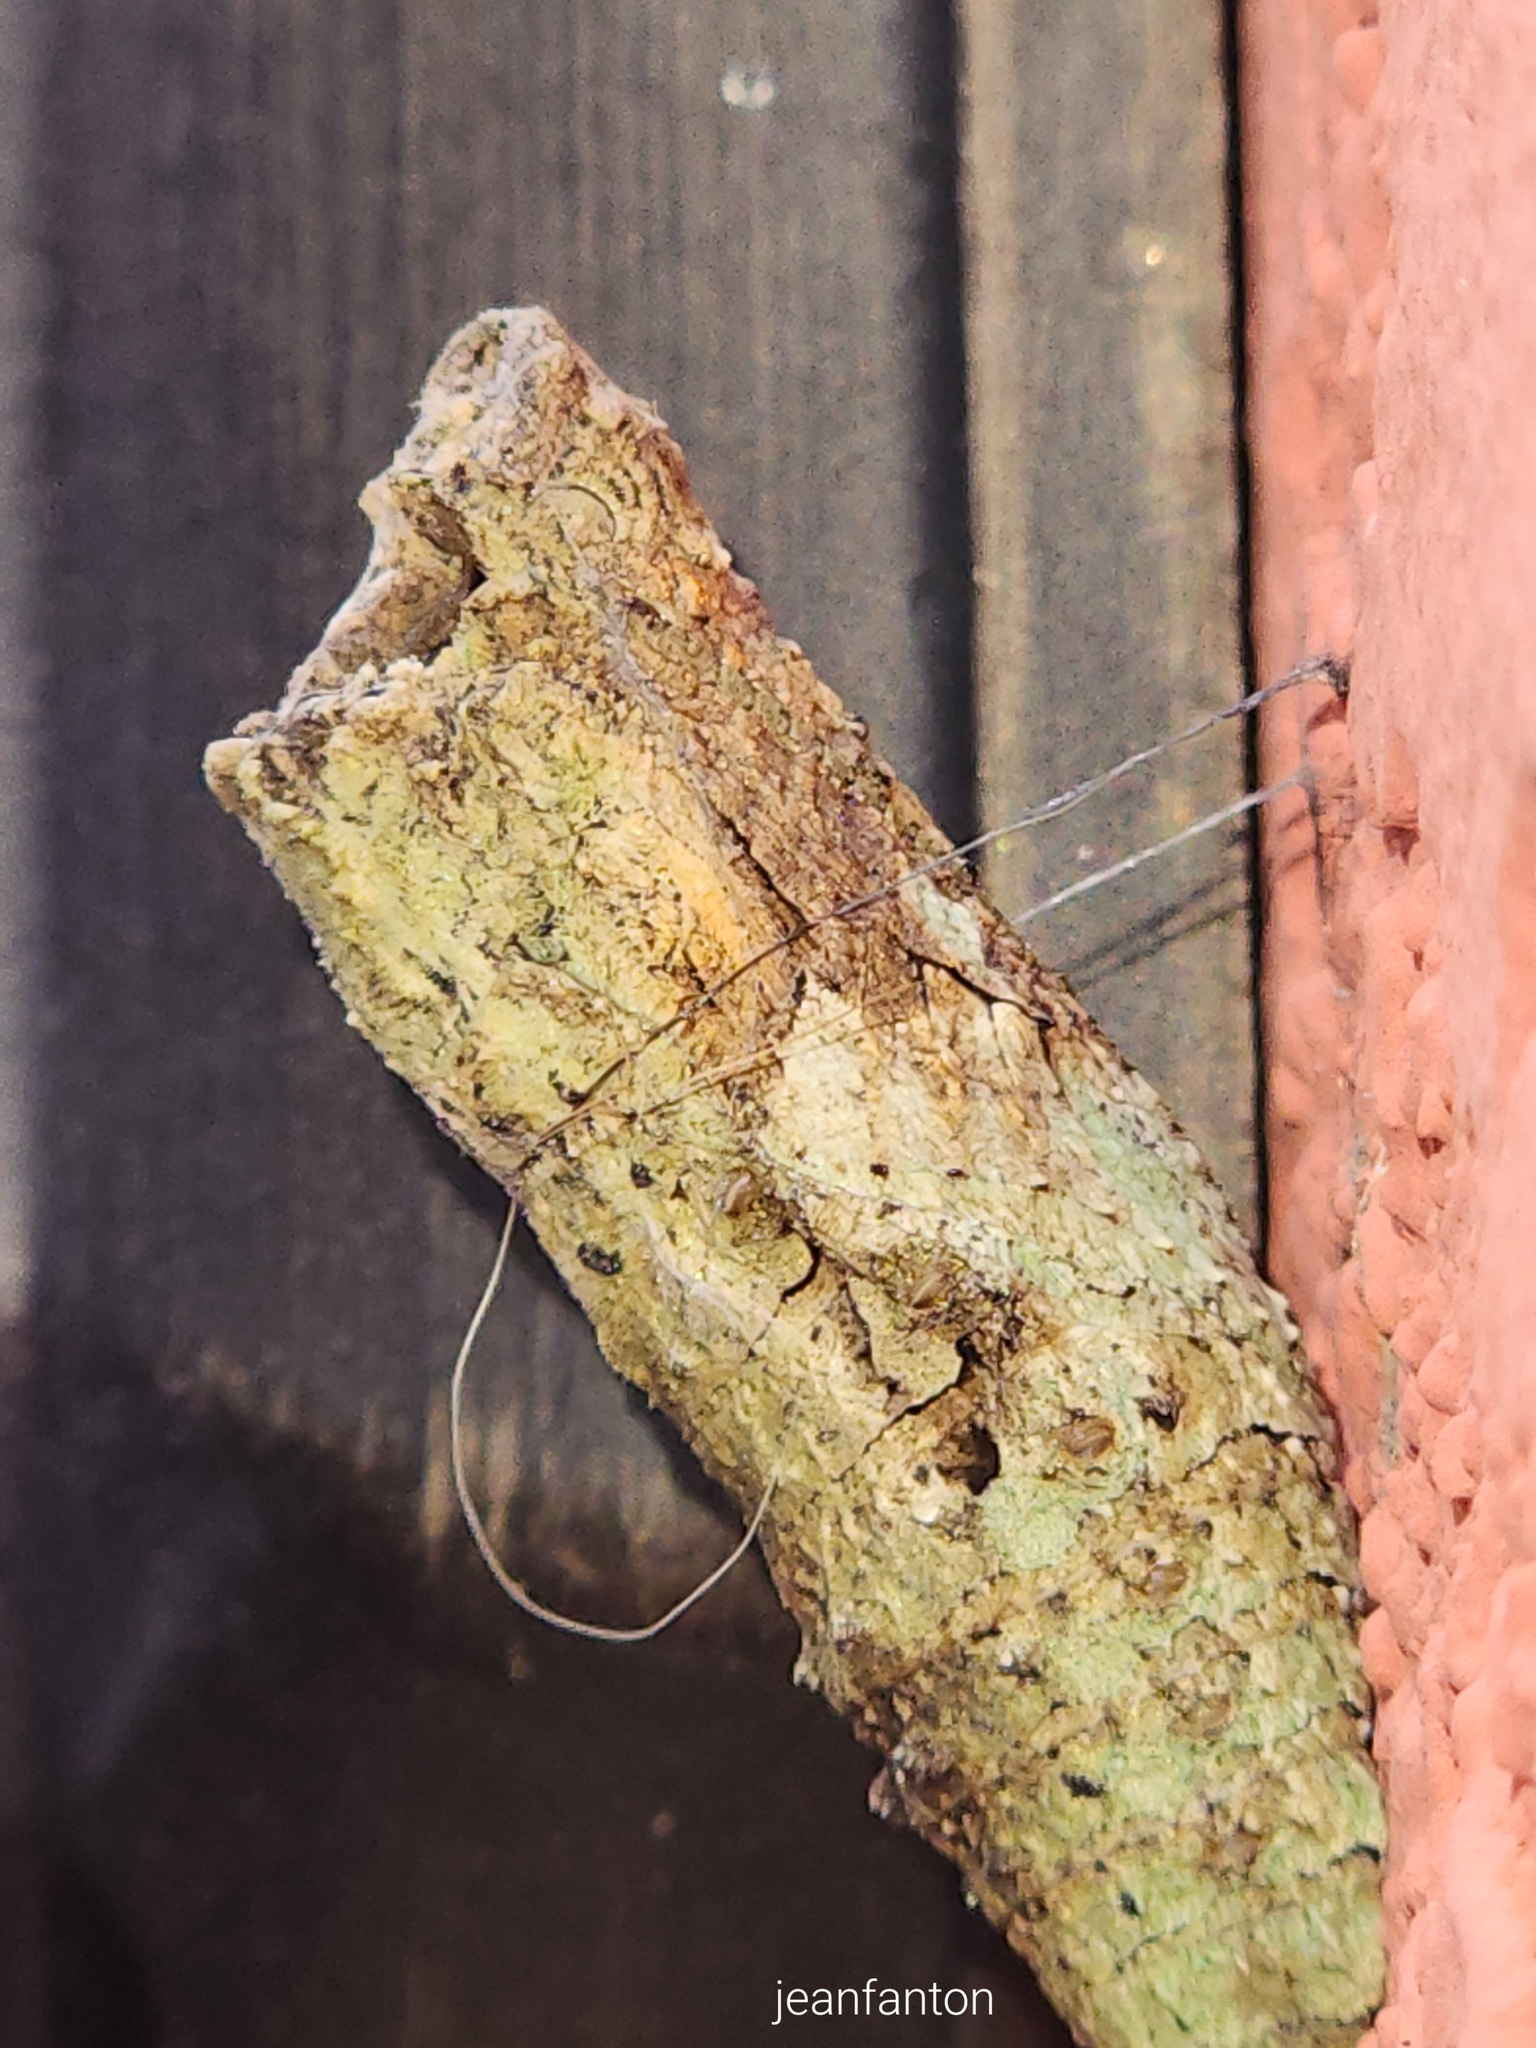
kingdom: Animalia
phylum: Arthropoda
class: Insecta
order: Lepidoptera
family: Papilionidae
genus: Papilio
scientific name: Papilio anchisiades
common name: Idaes swallowtail
